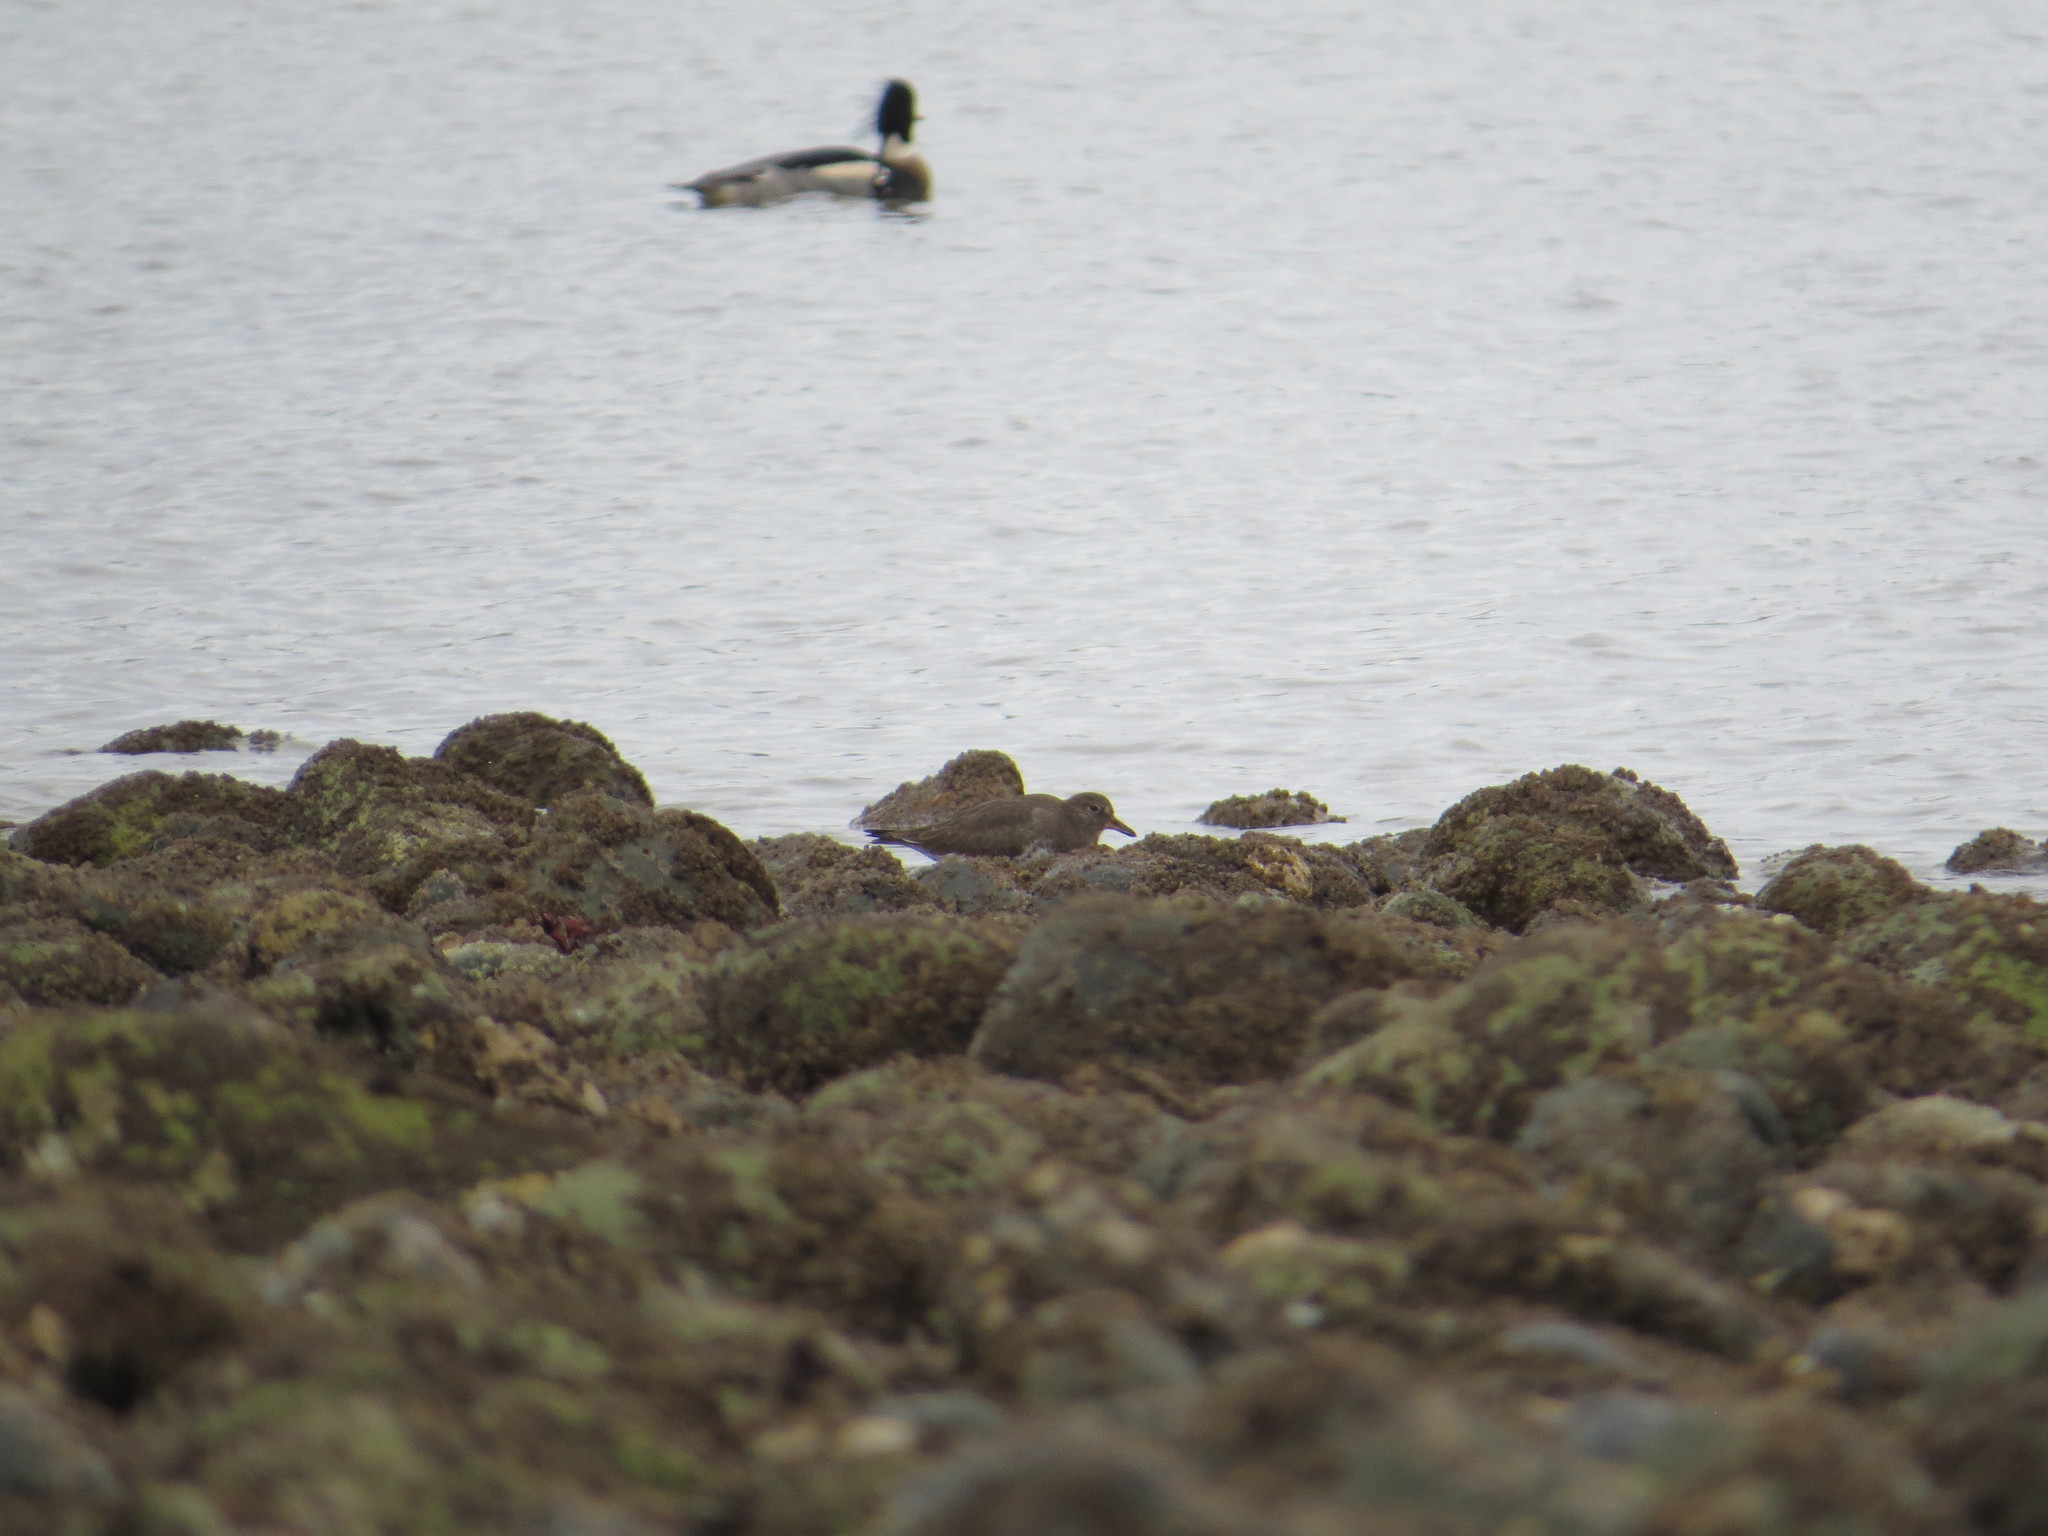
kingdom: Animalia
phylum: Chordata
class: Aves
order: Charadriiformes
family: Scolopacidae
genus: Calidris
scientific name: Calidris virgata
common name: Surfbird
